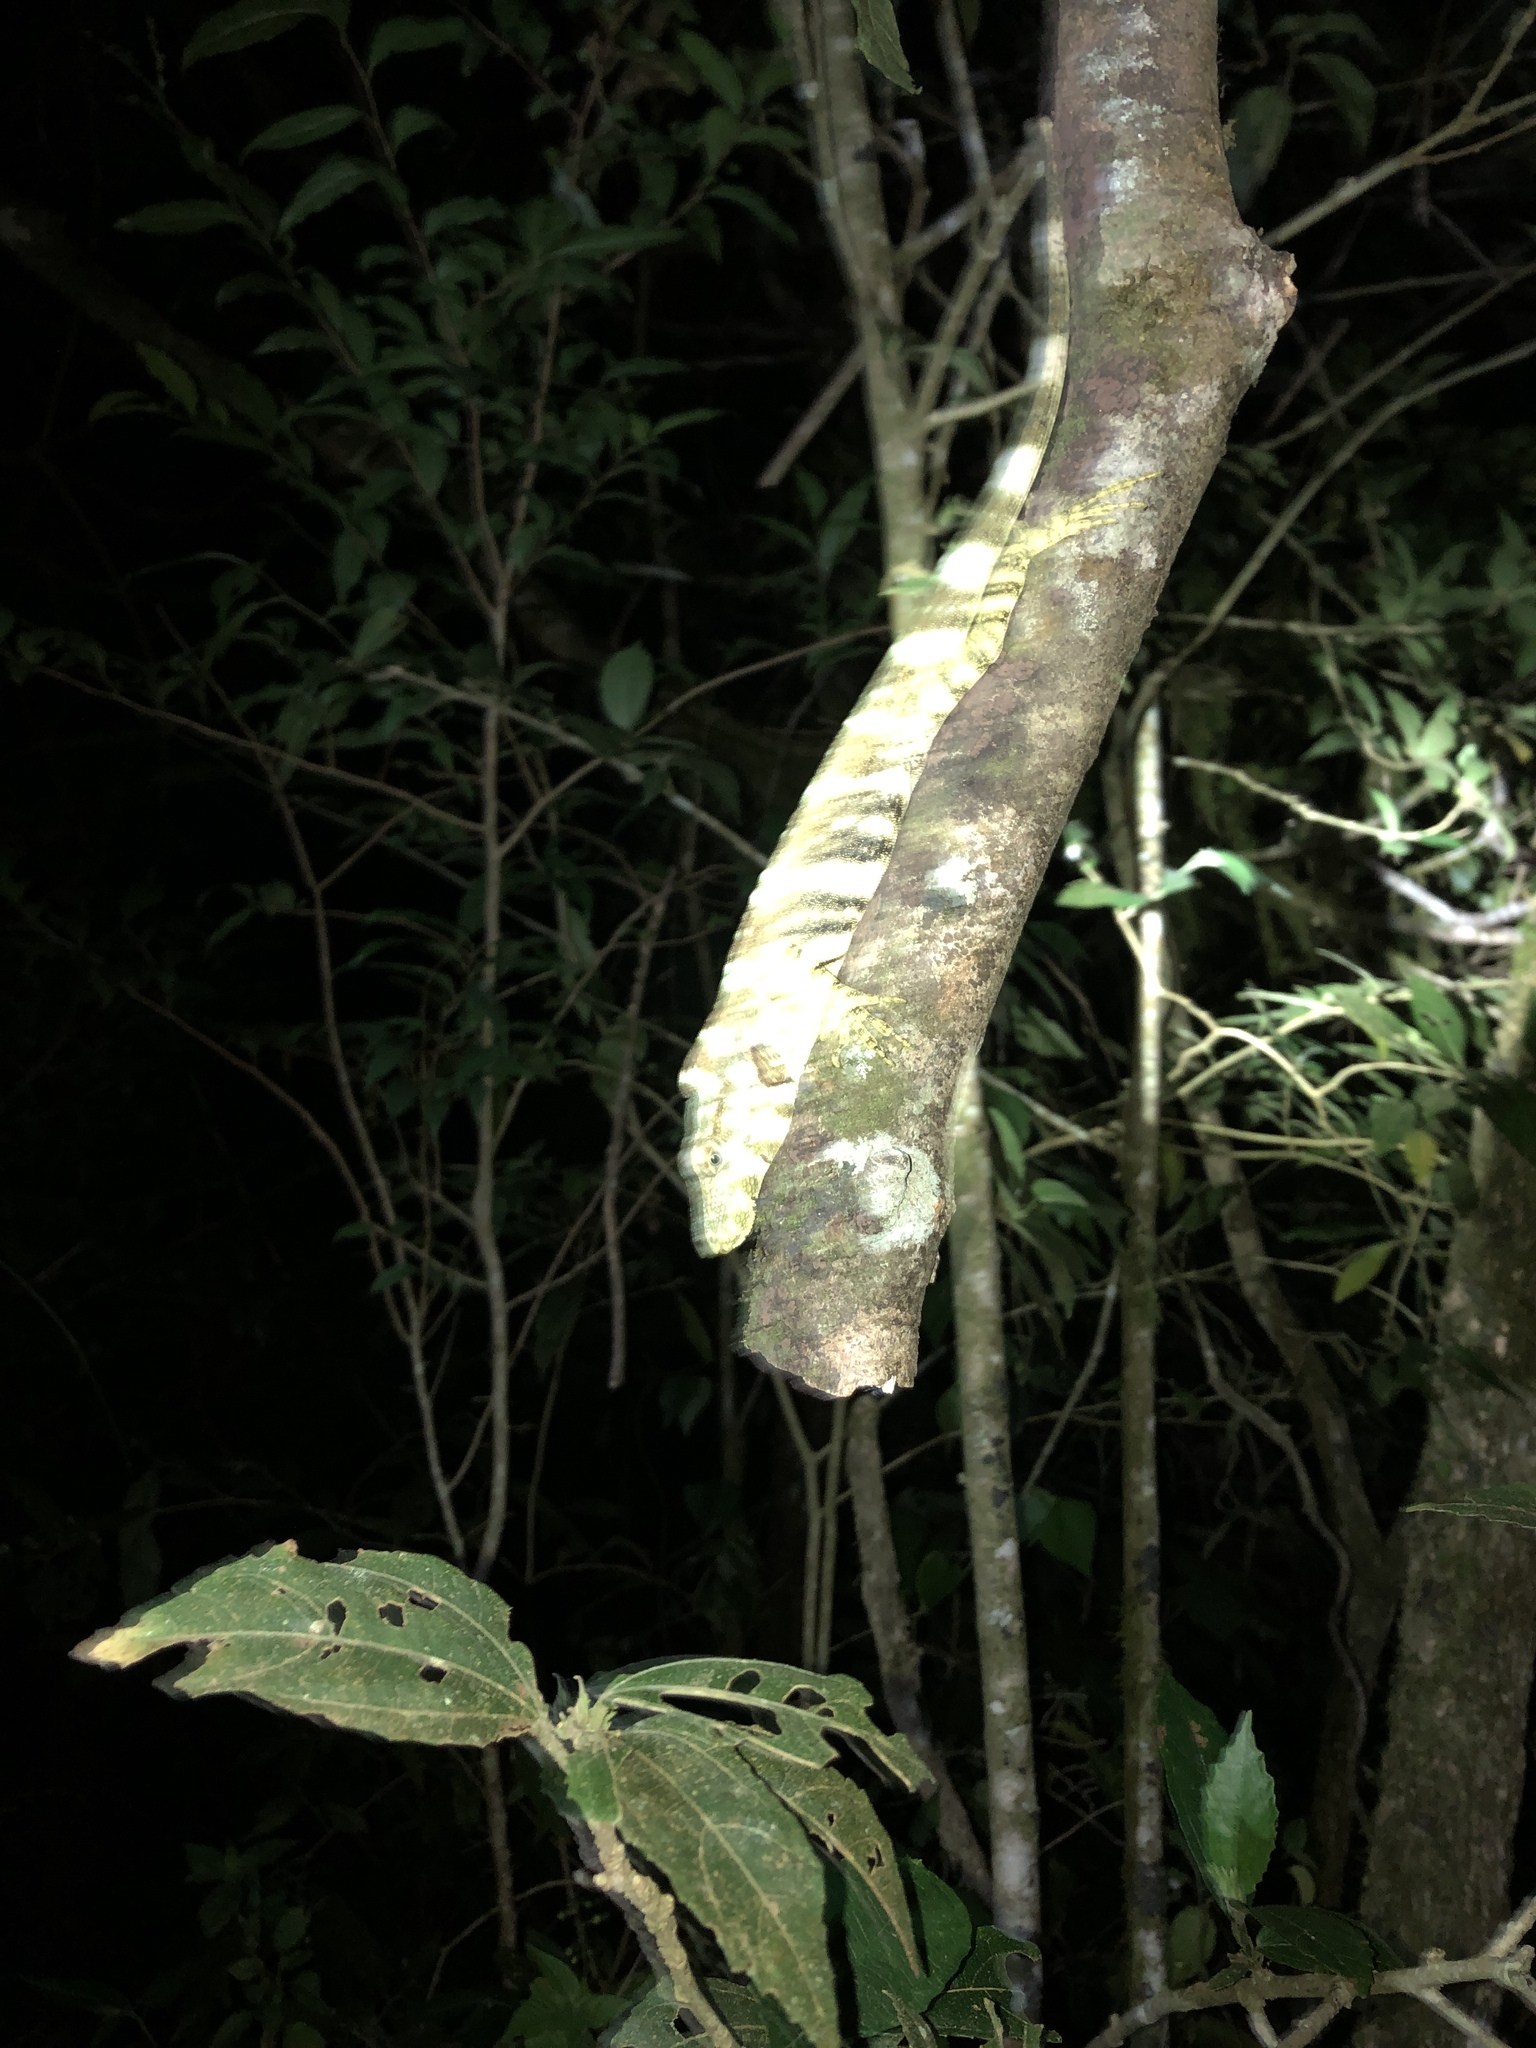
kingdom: Animalia
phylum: Chordata
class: Squamata
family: Dactyloidae
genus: Anolis
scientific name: Anolis insignis
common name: Decorated anole
